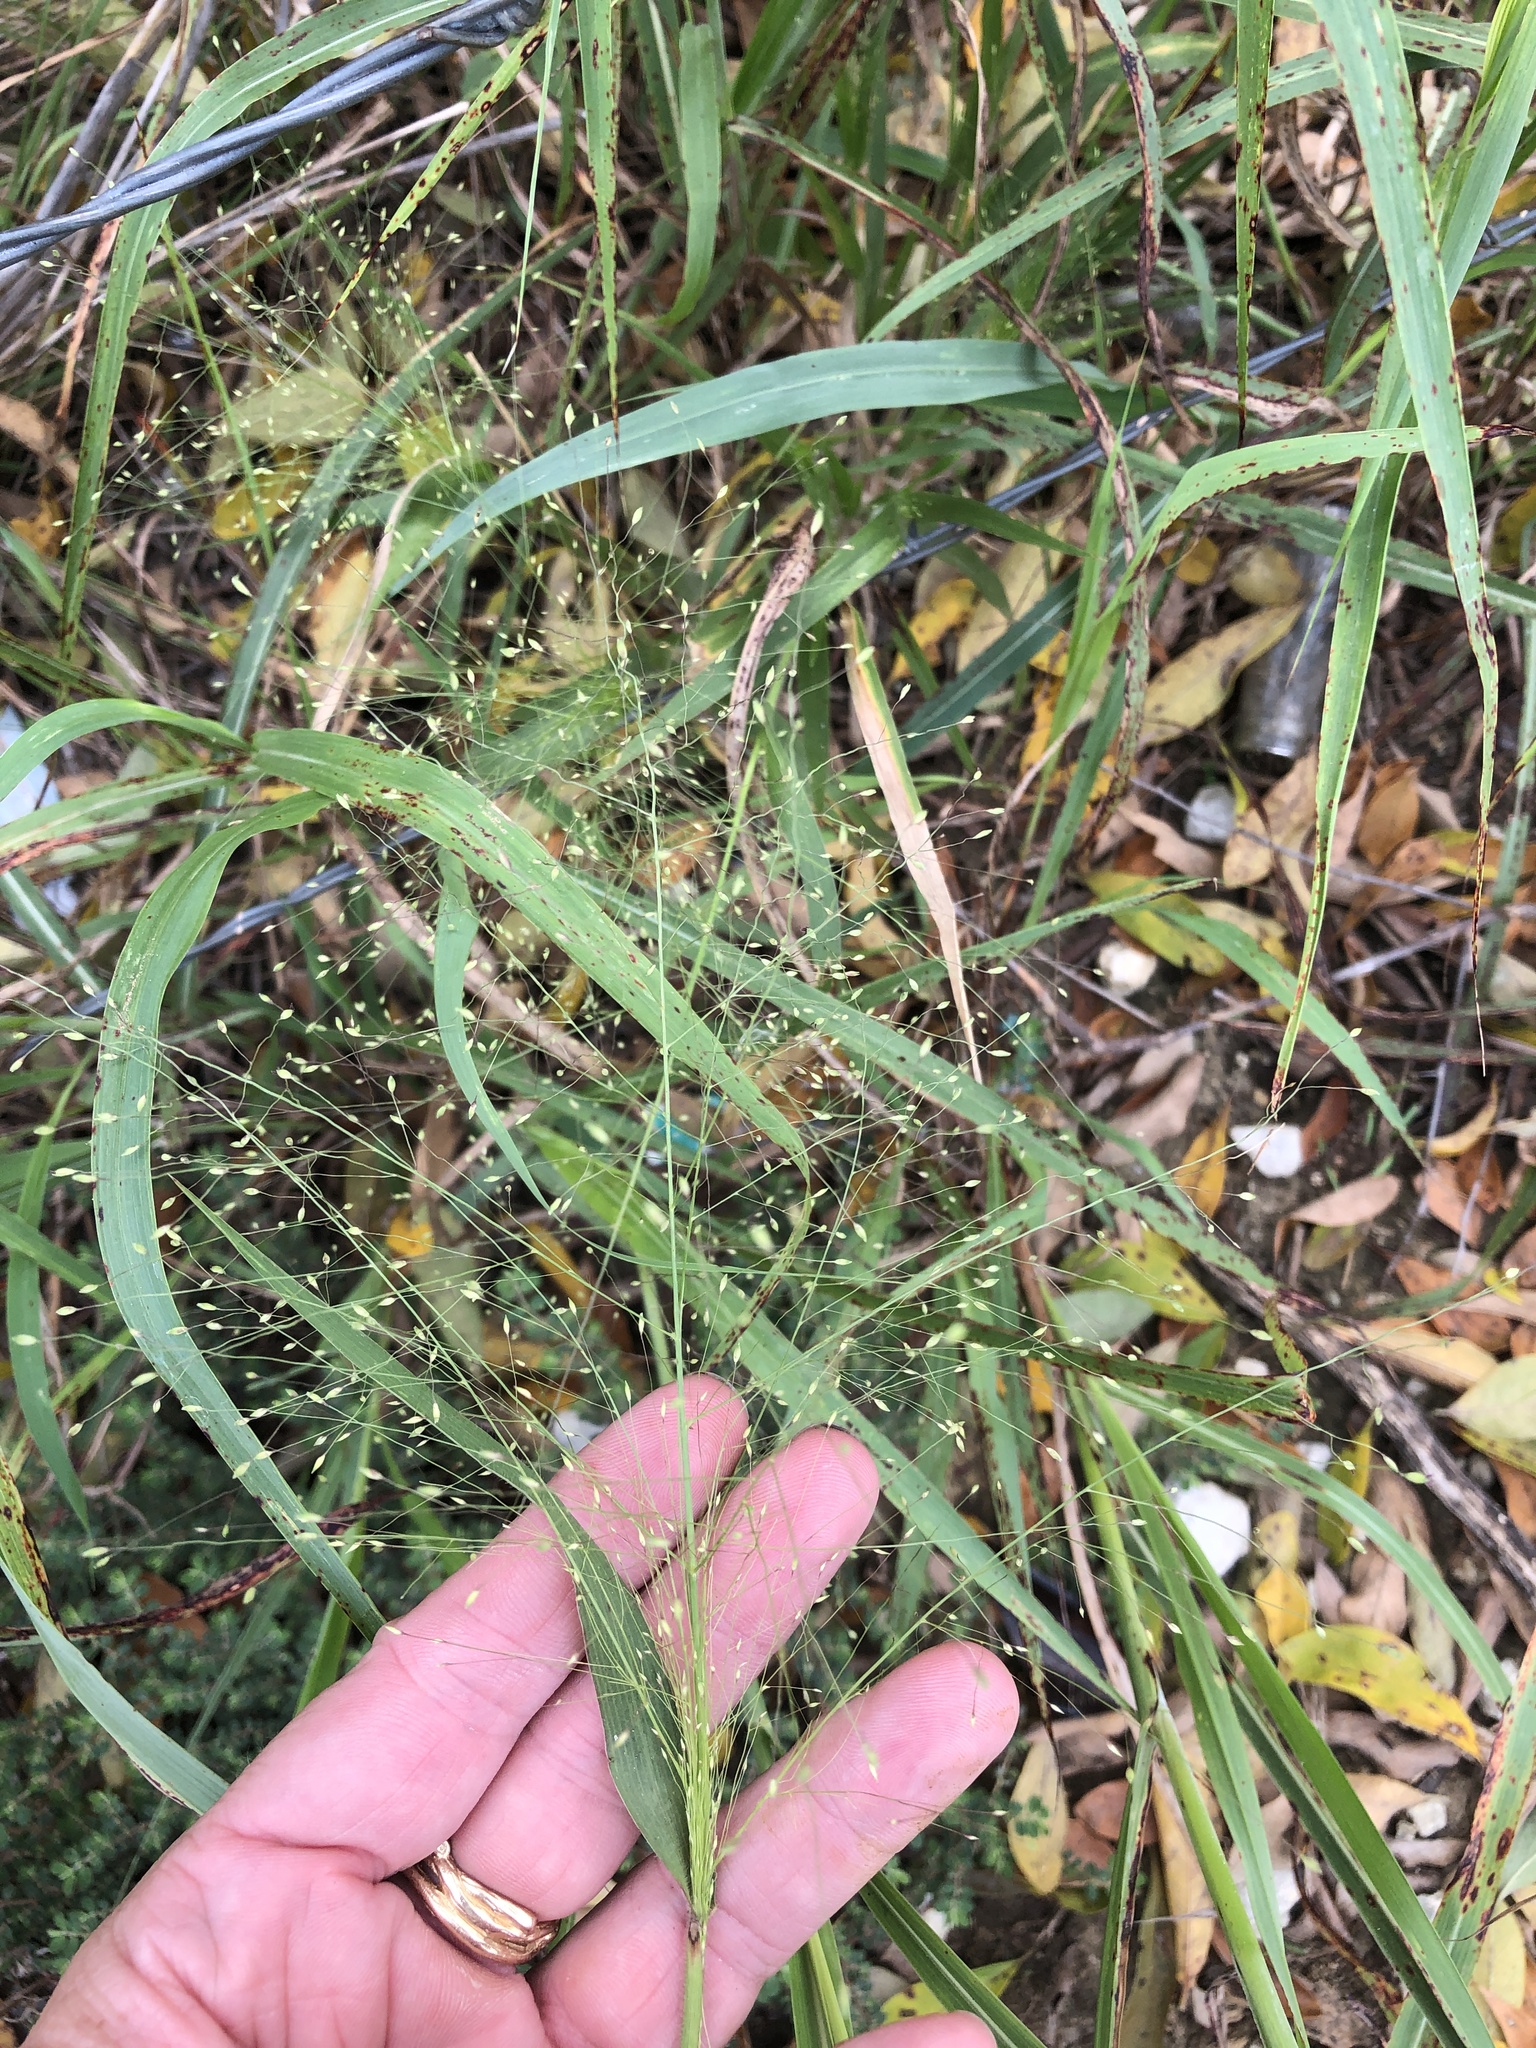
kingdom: Plantae
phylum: Tracheophyta
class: Liliopsida
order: Poales
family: Poaceae
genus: Panicum
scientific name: Panicum capillare
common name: Witch-grass
